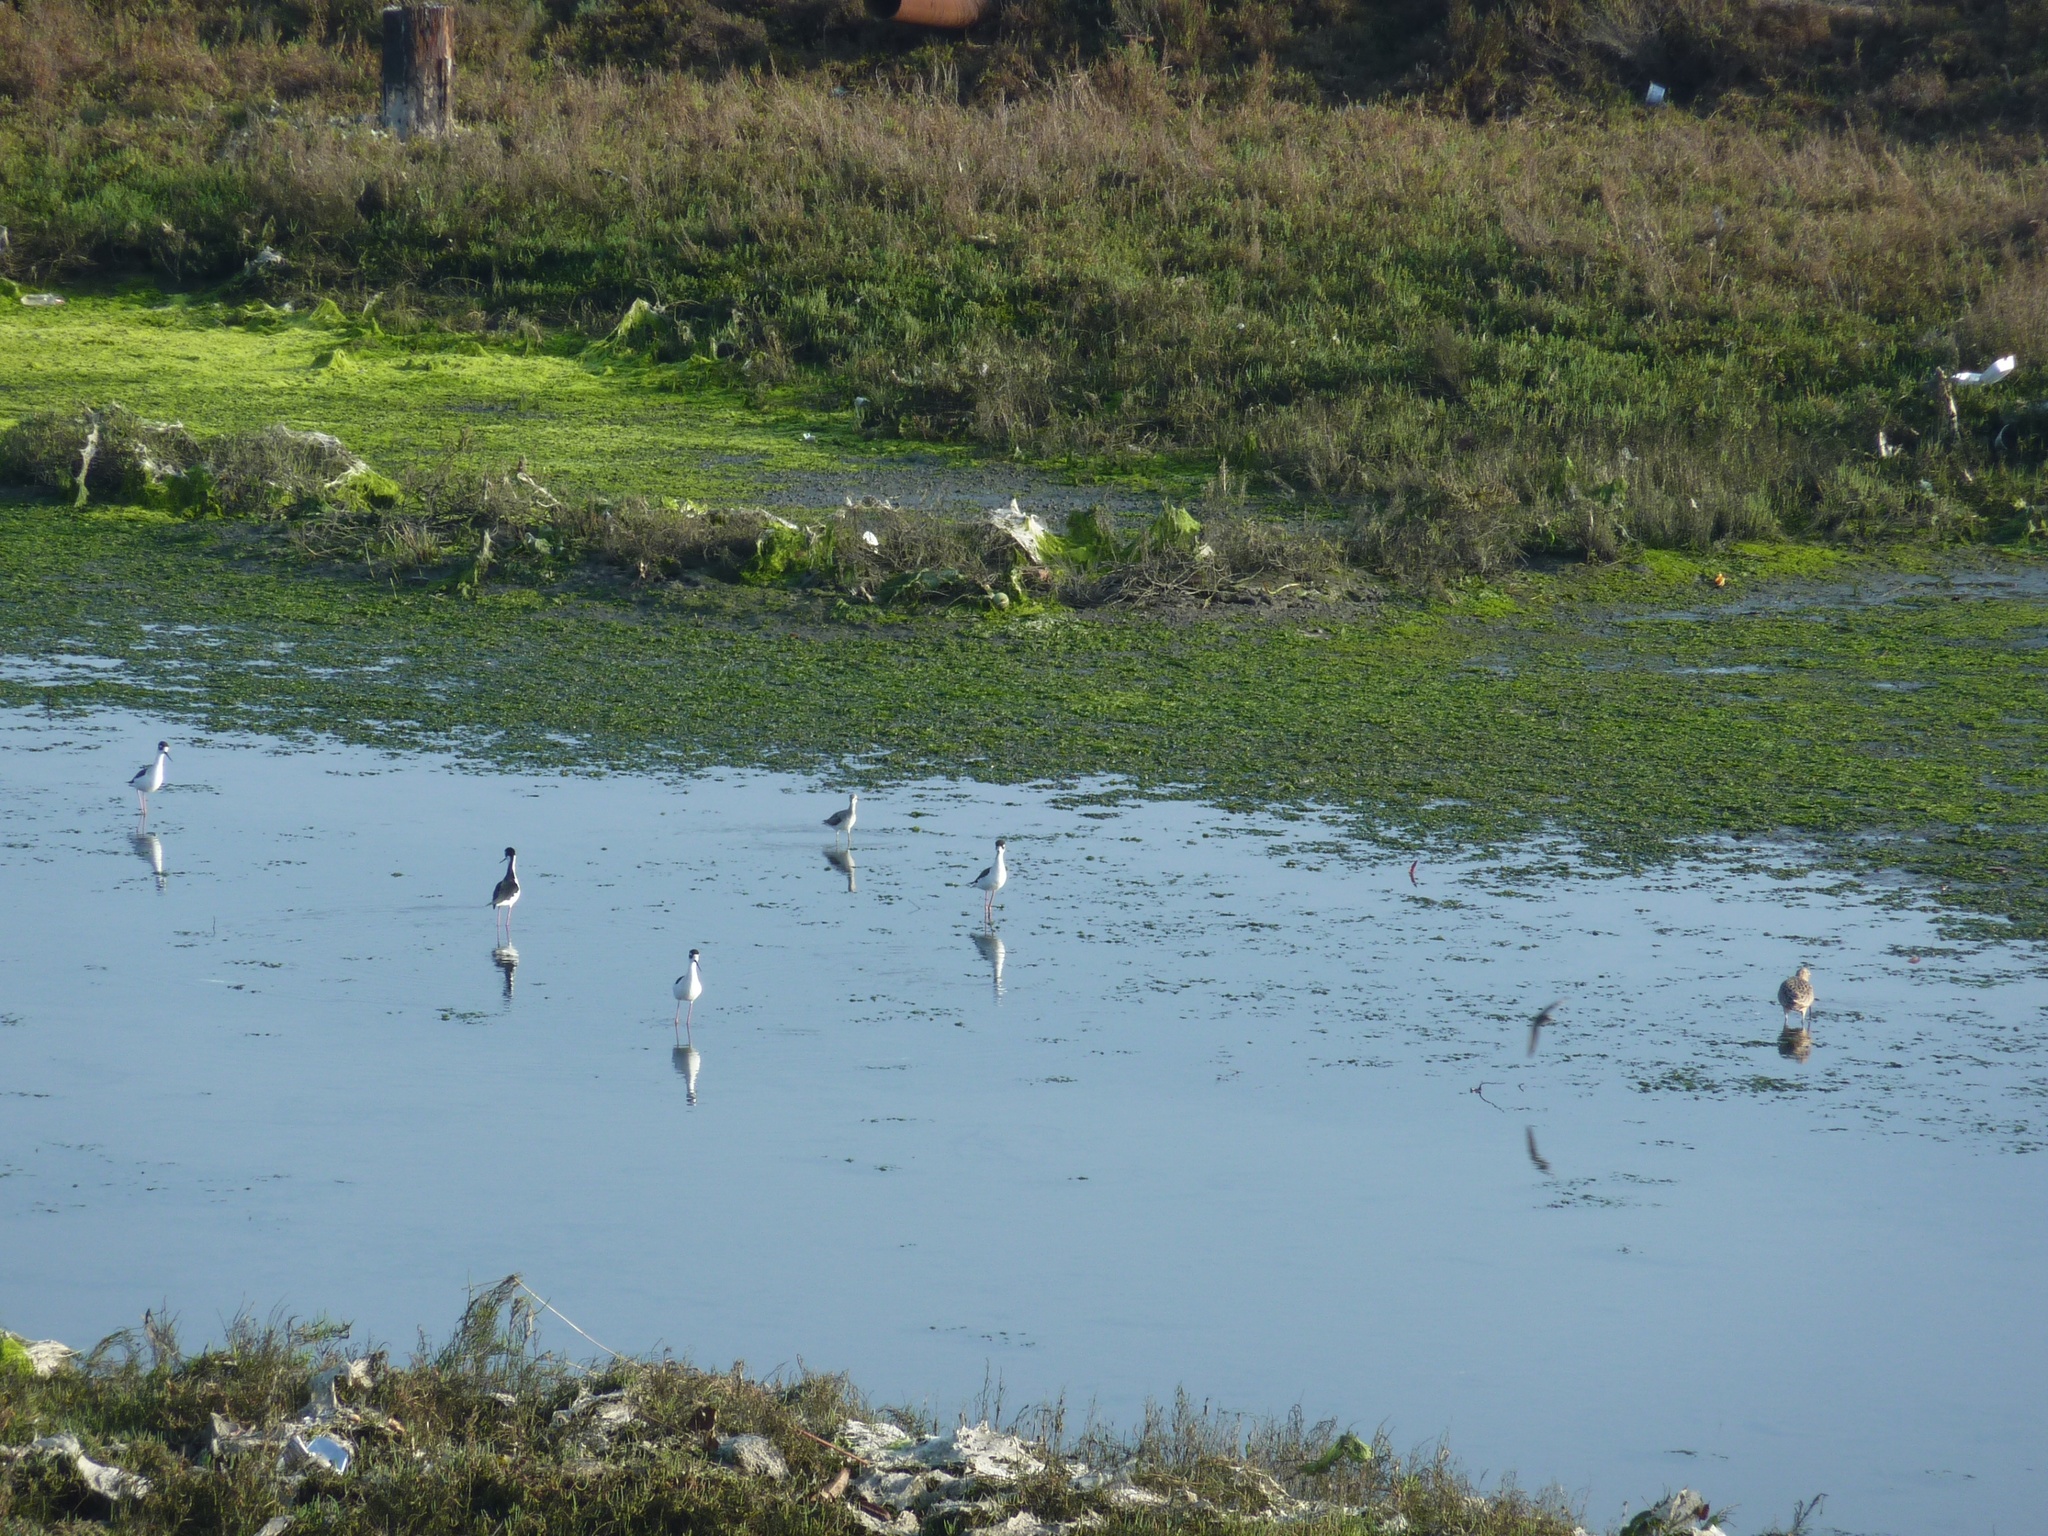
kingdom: Animalia
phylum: Chordata
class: Aves
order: Charadriiformes
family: Recurvirostridae
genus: Himantopus
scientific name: Himantopus mexicanus
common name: Black-necked stilt
